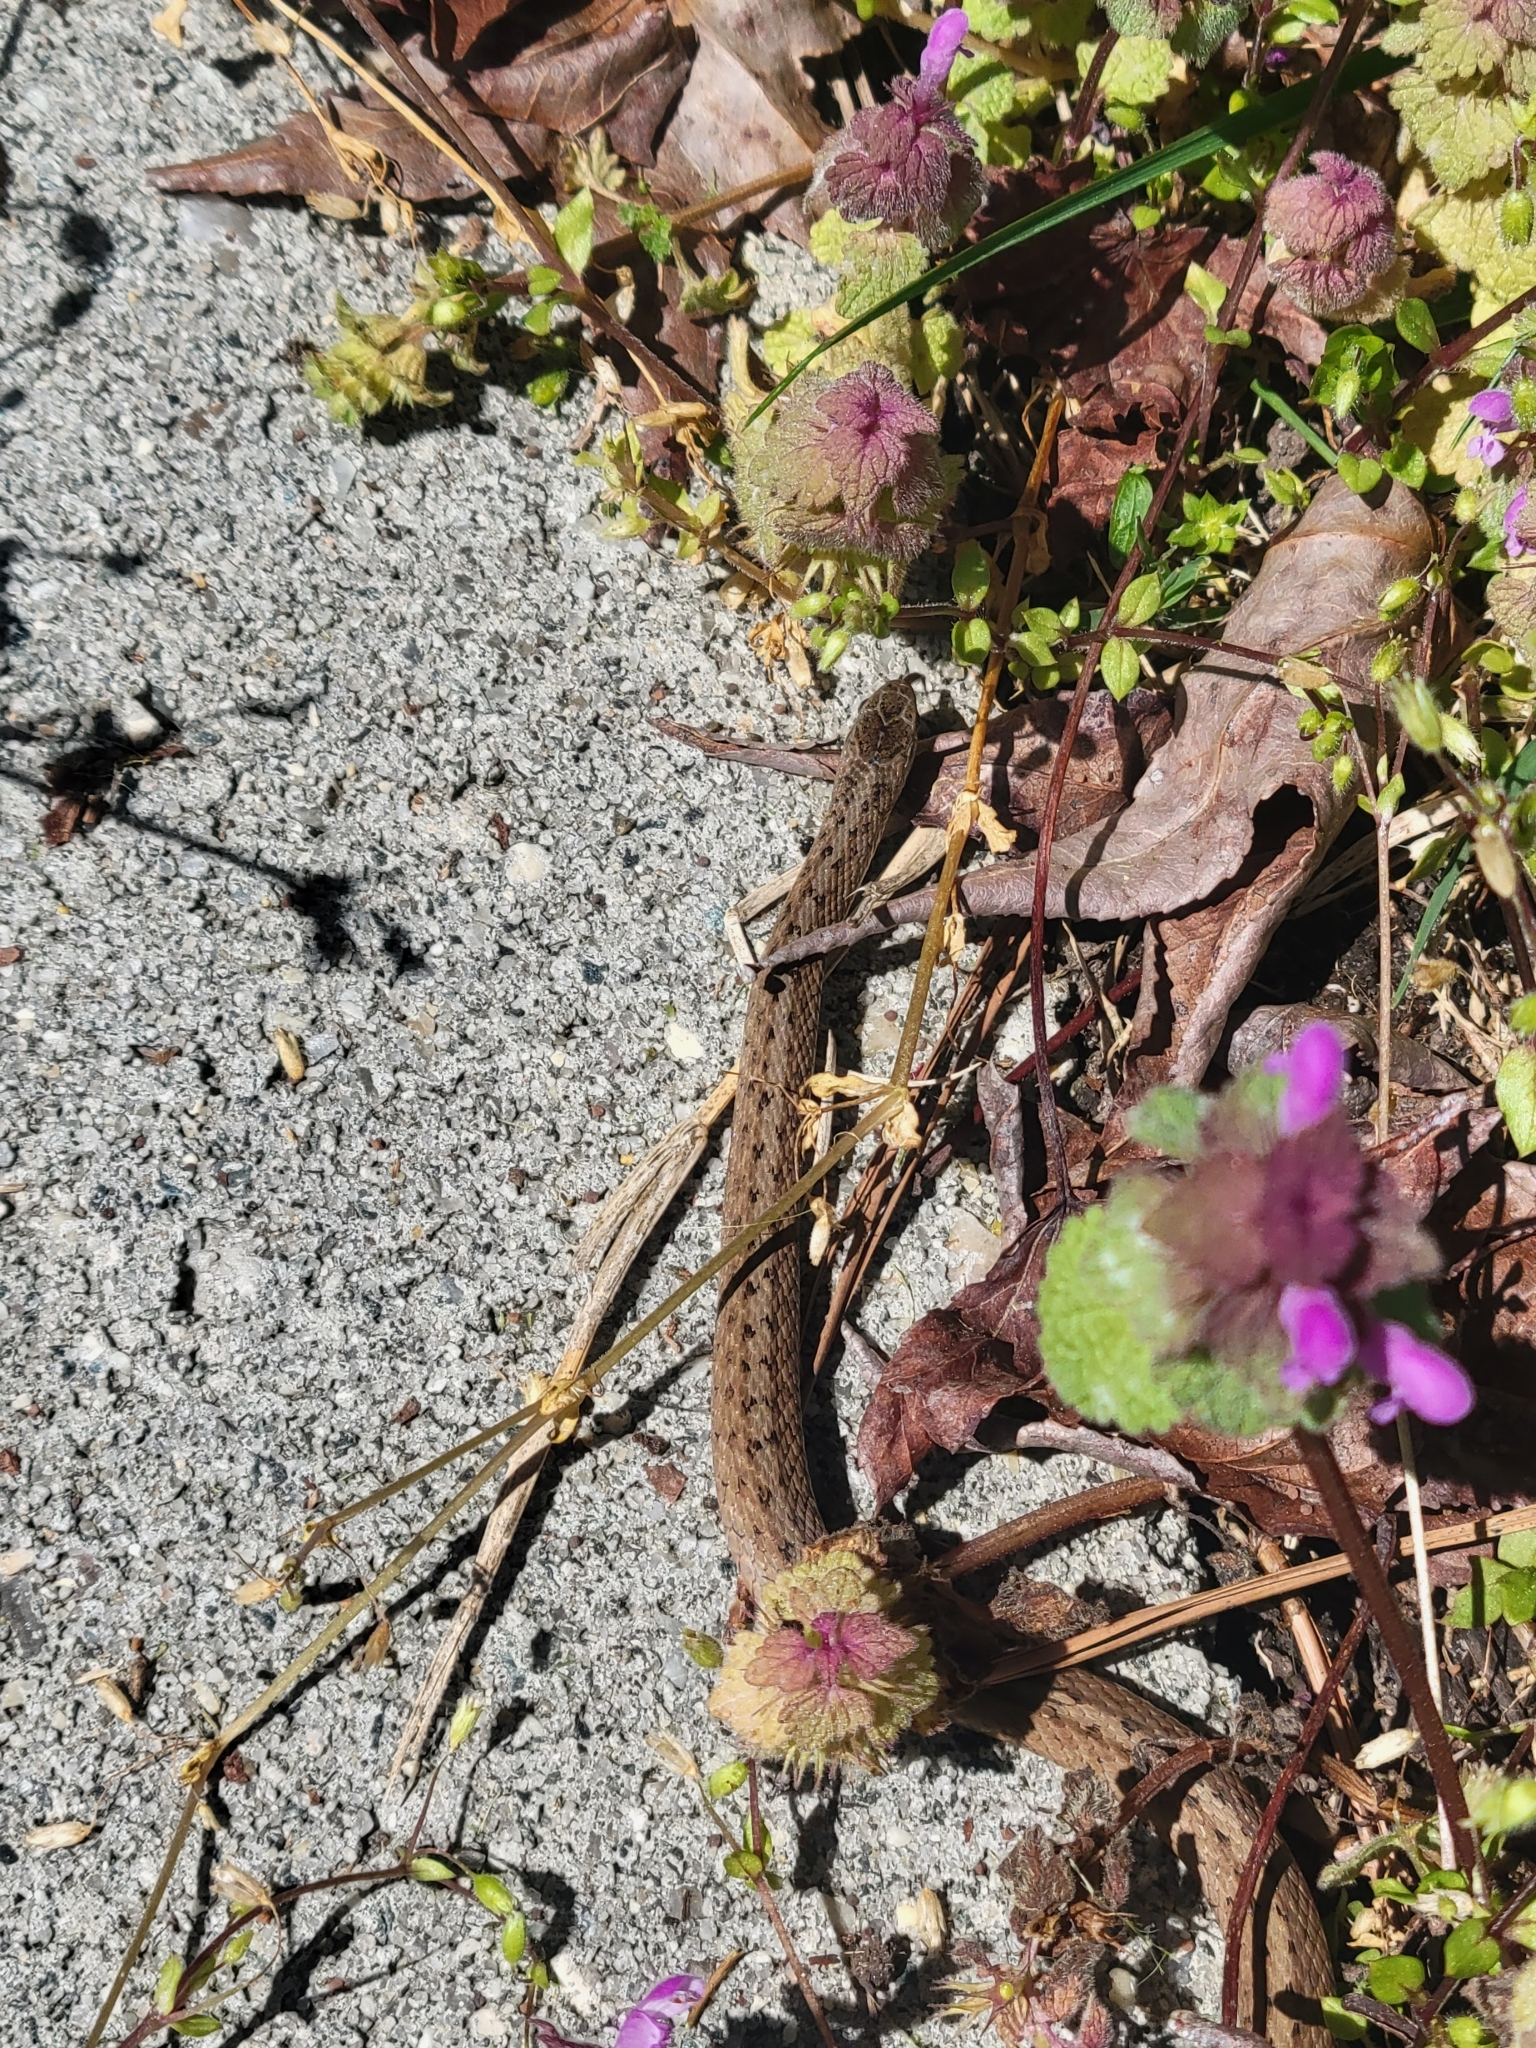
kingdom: Animalia
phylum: Chordata
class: Squamata
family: Colubridae
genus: Storeria
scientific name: Storeria dekayi
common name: (dekay’s) brown snake
